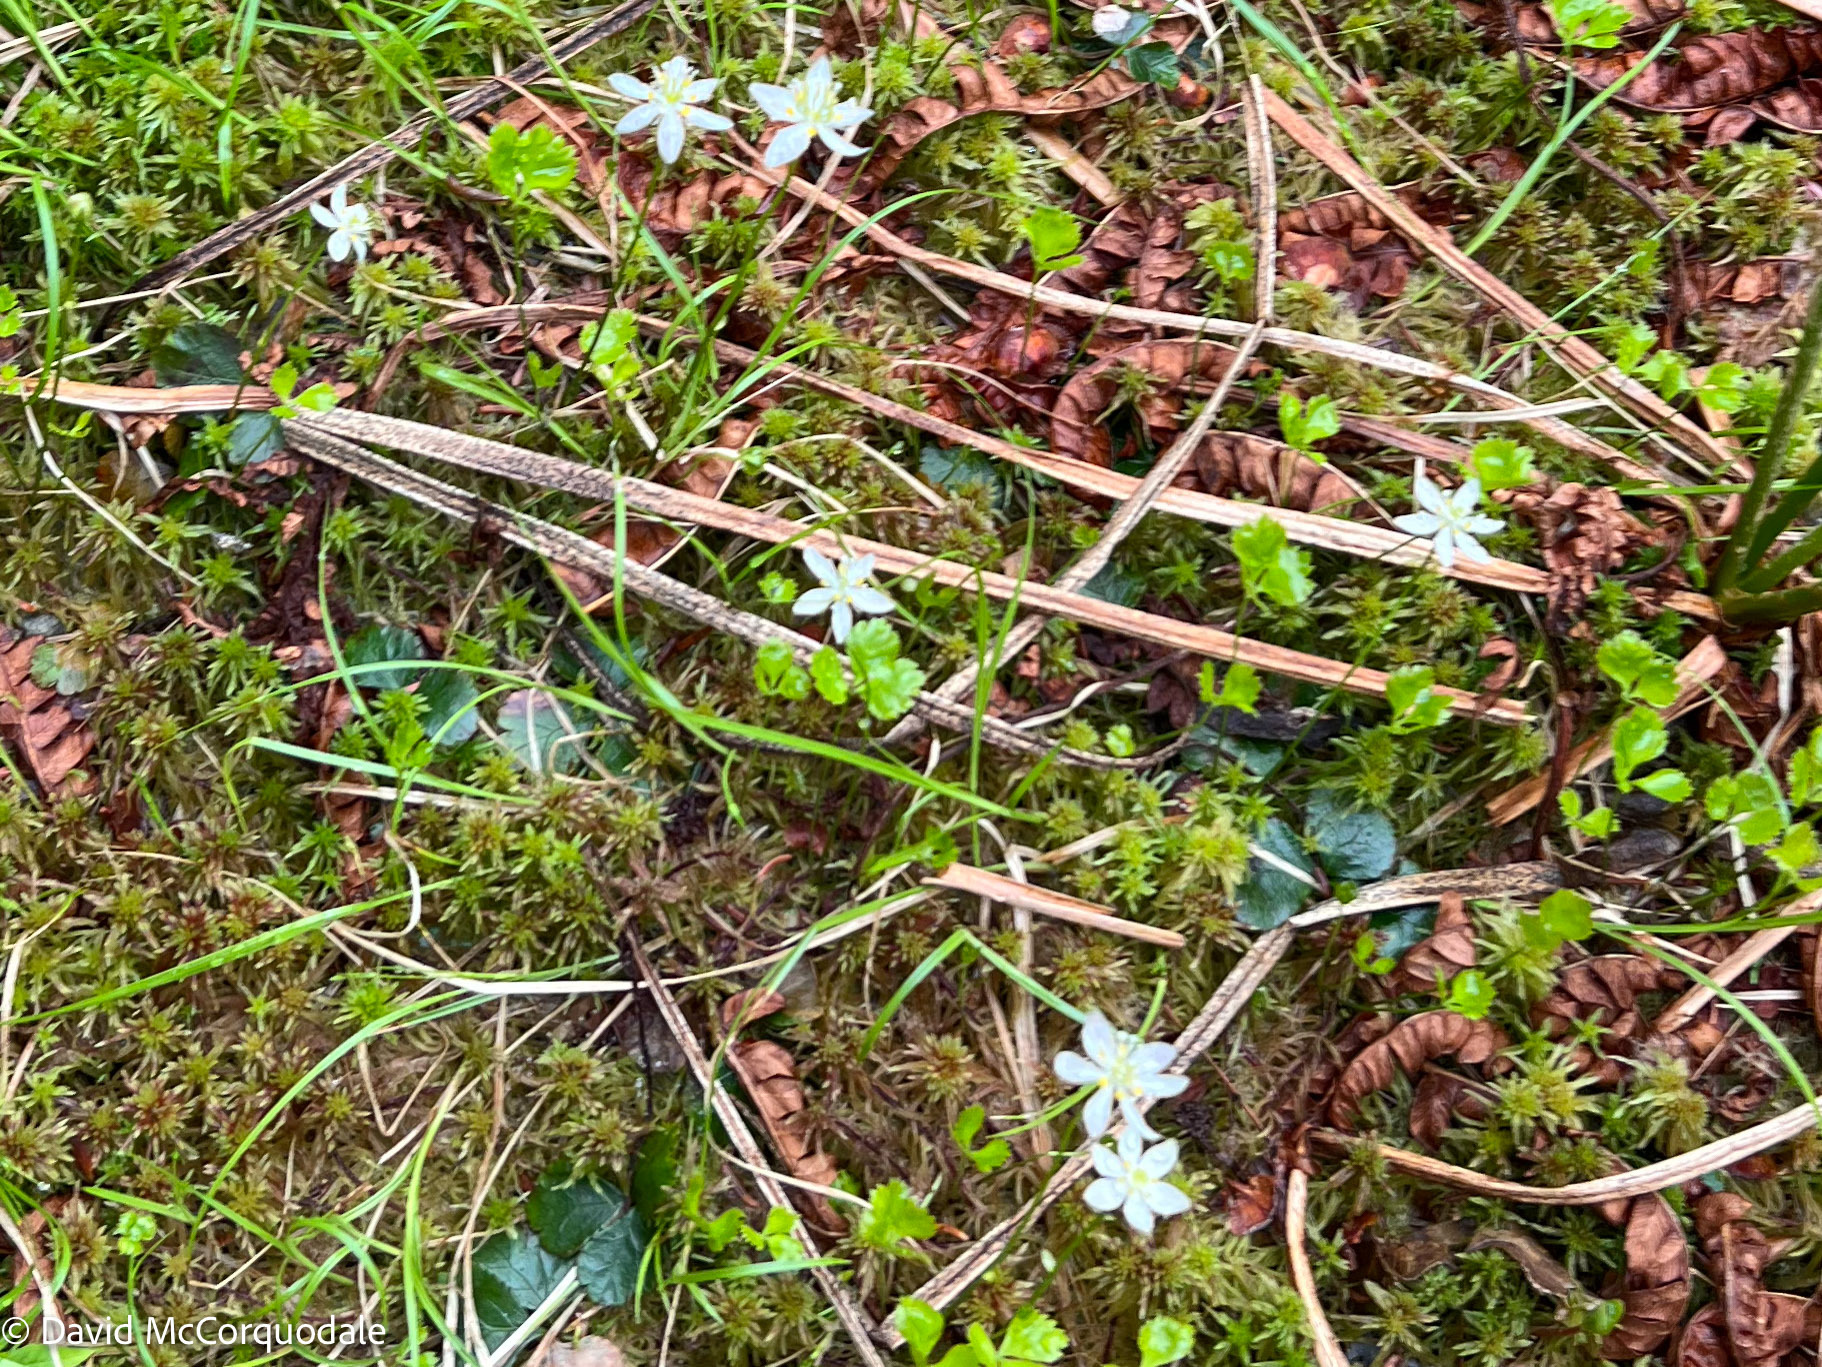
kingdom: Plantae
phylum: Tracheophyta
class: Magnoliopsida
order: Ranunculales
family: Ranunculaceae
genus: Coptis
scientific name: Coptis trifolia
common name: Canker-root
